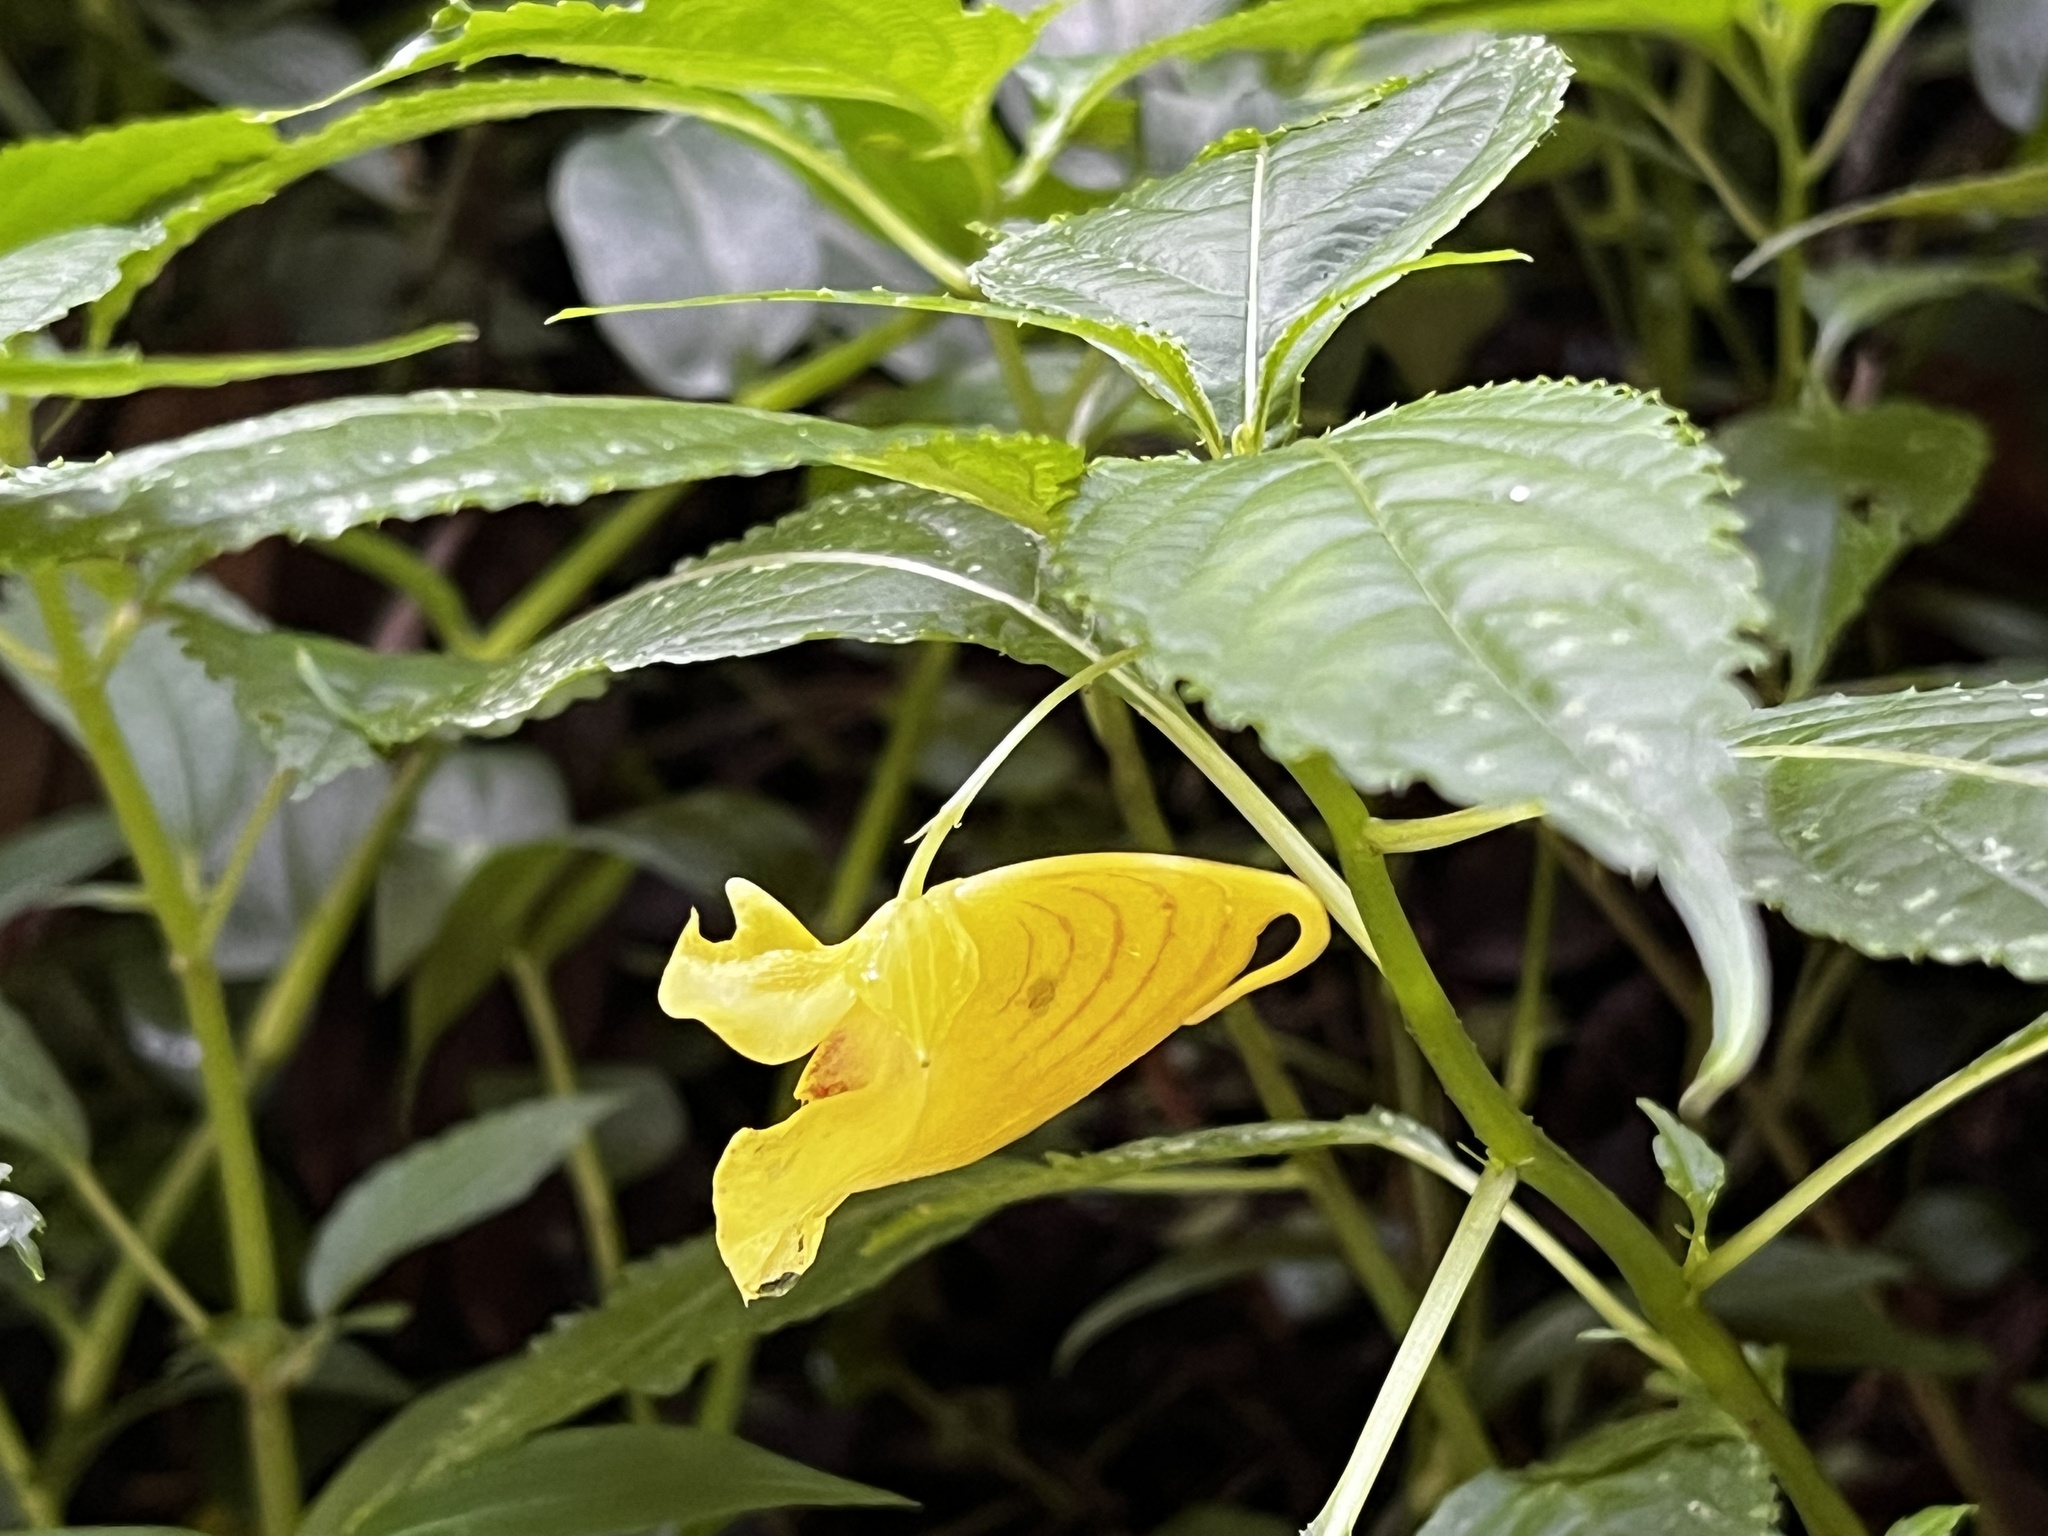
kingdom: Plantae
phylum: Tracheophyta
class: Magnoliopsida
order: Ericales
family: Balsaminaceae
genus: Impatiens
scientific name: Impatiens tayemonii
